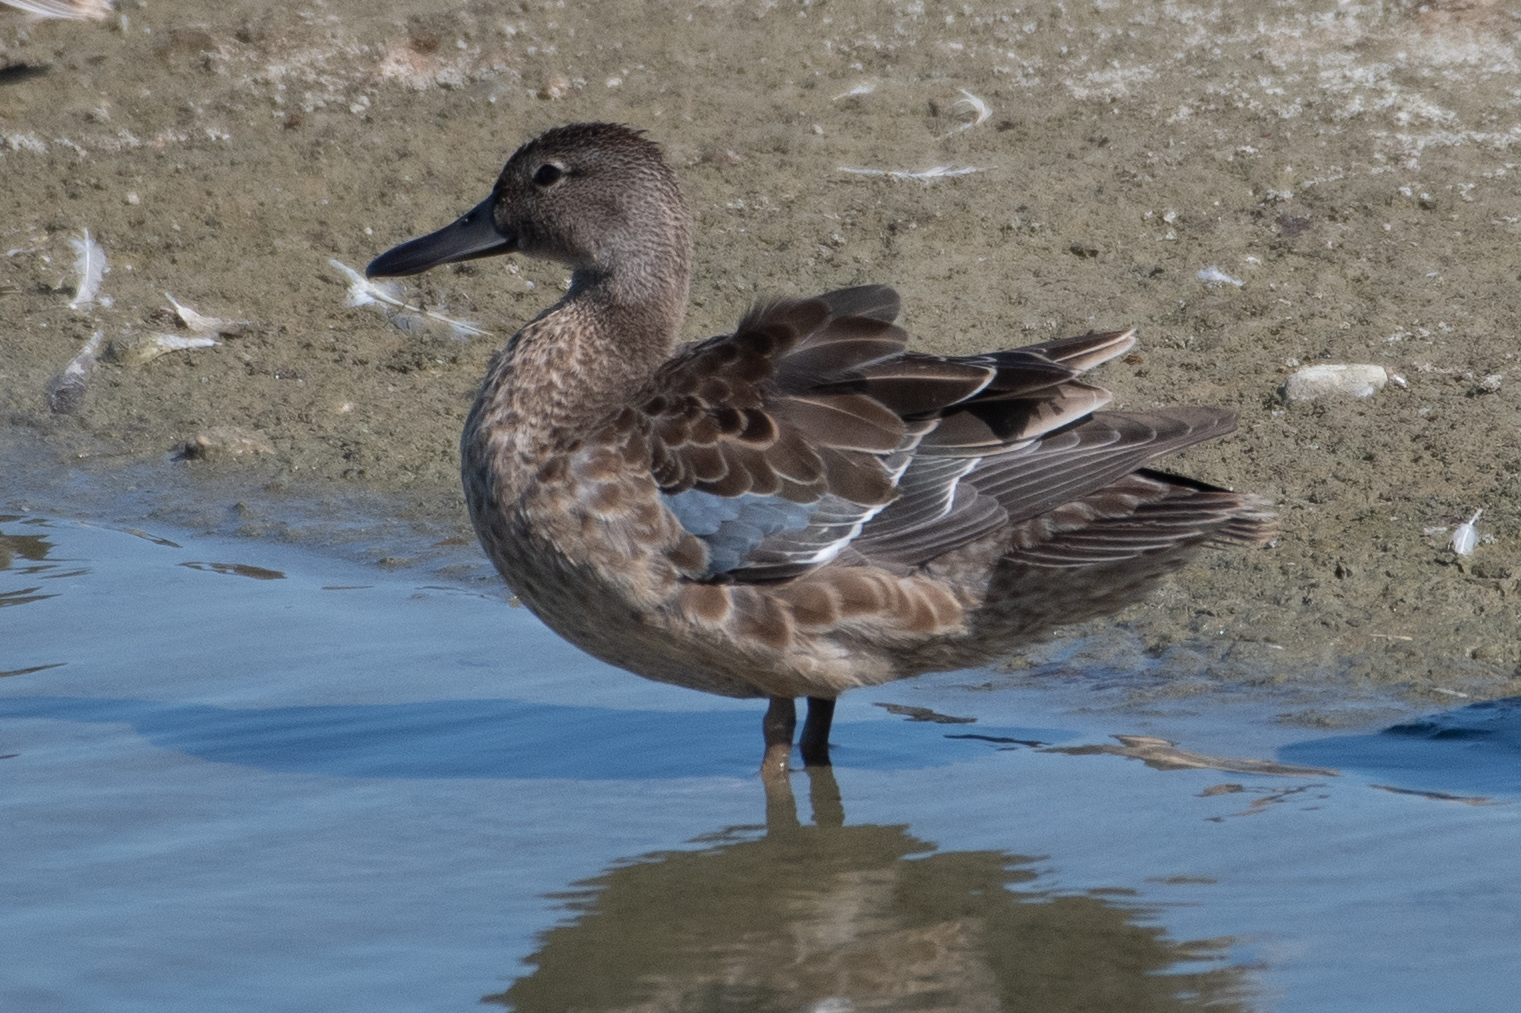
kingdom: Animalia
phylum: Chordata
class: Aves
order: Anseriformes
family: Anatidae
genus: Spatula
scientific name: Spatula cyanoptera
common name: Cinnamon teal
